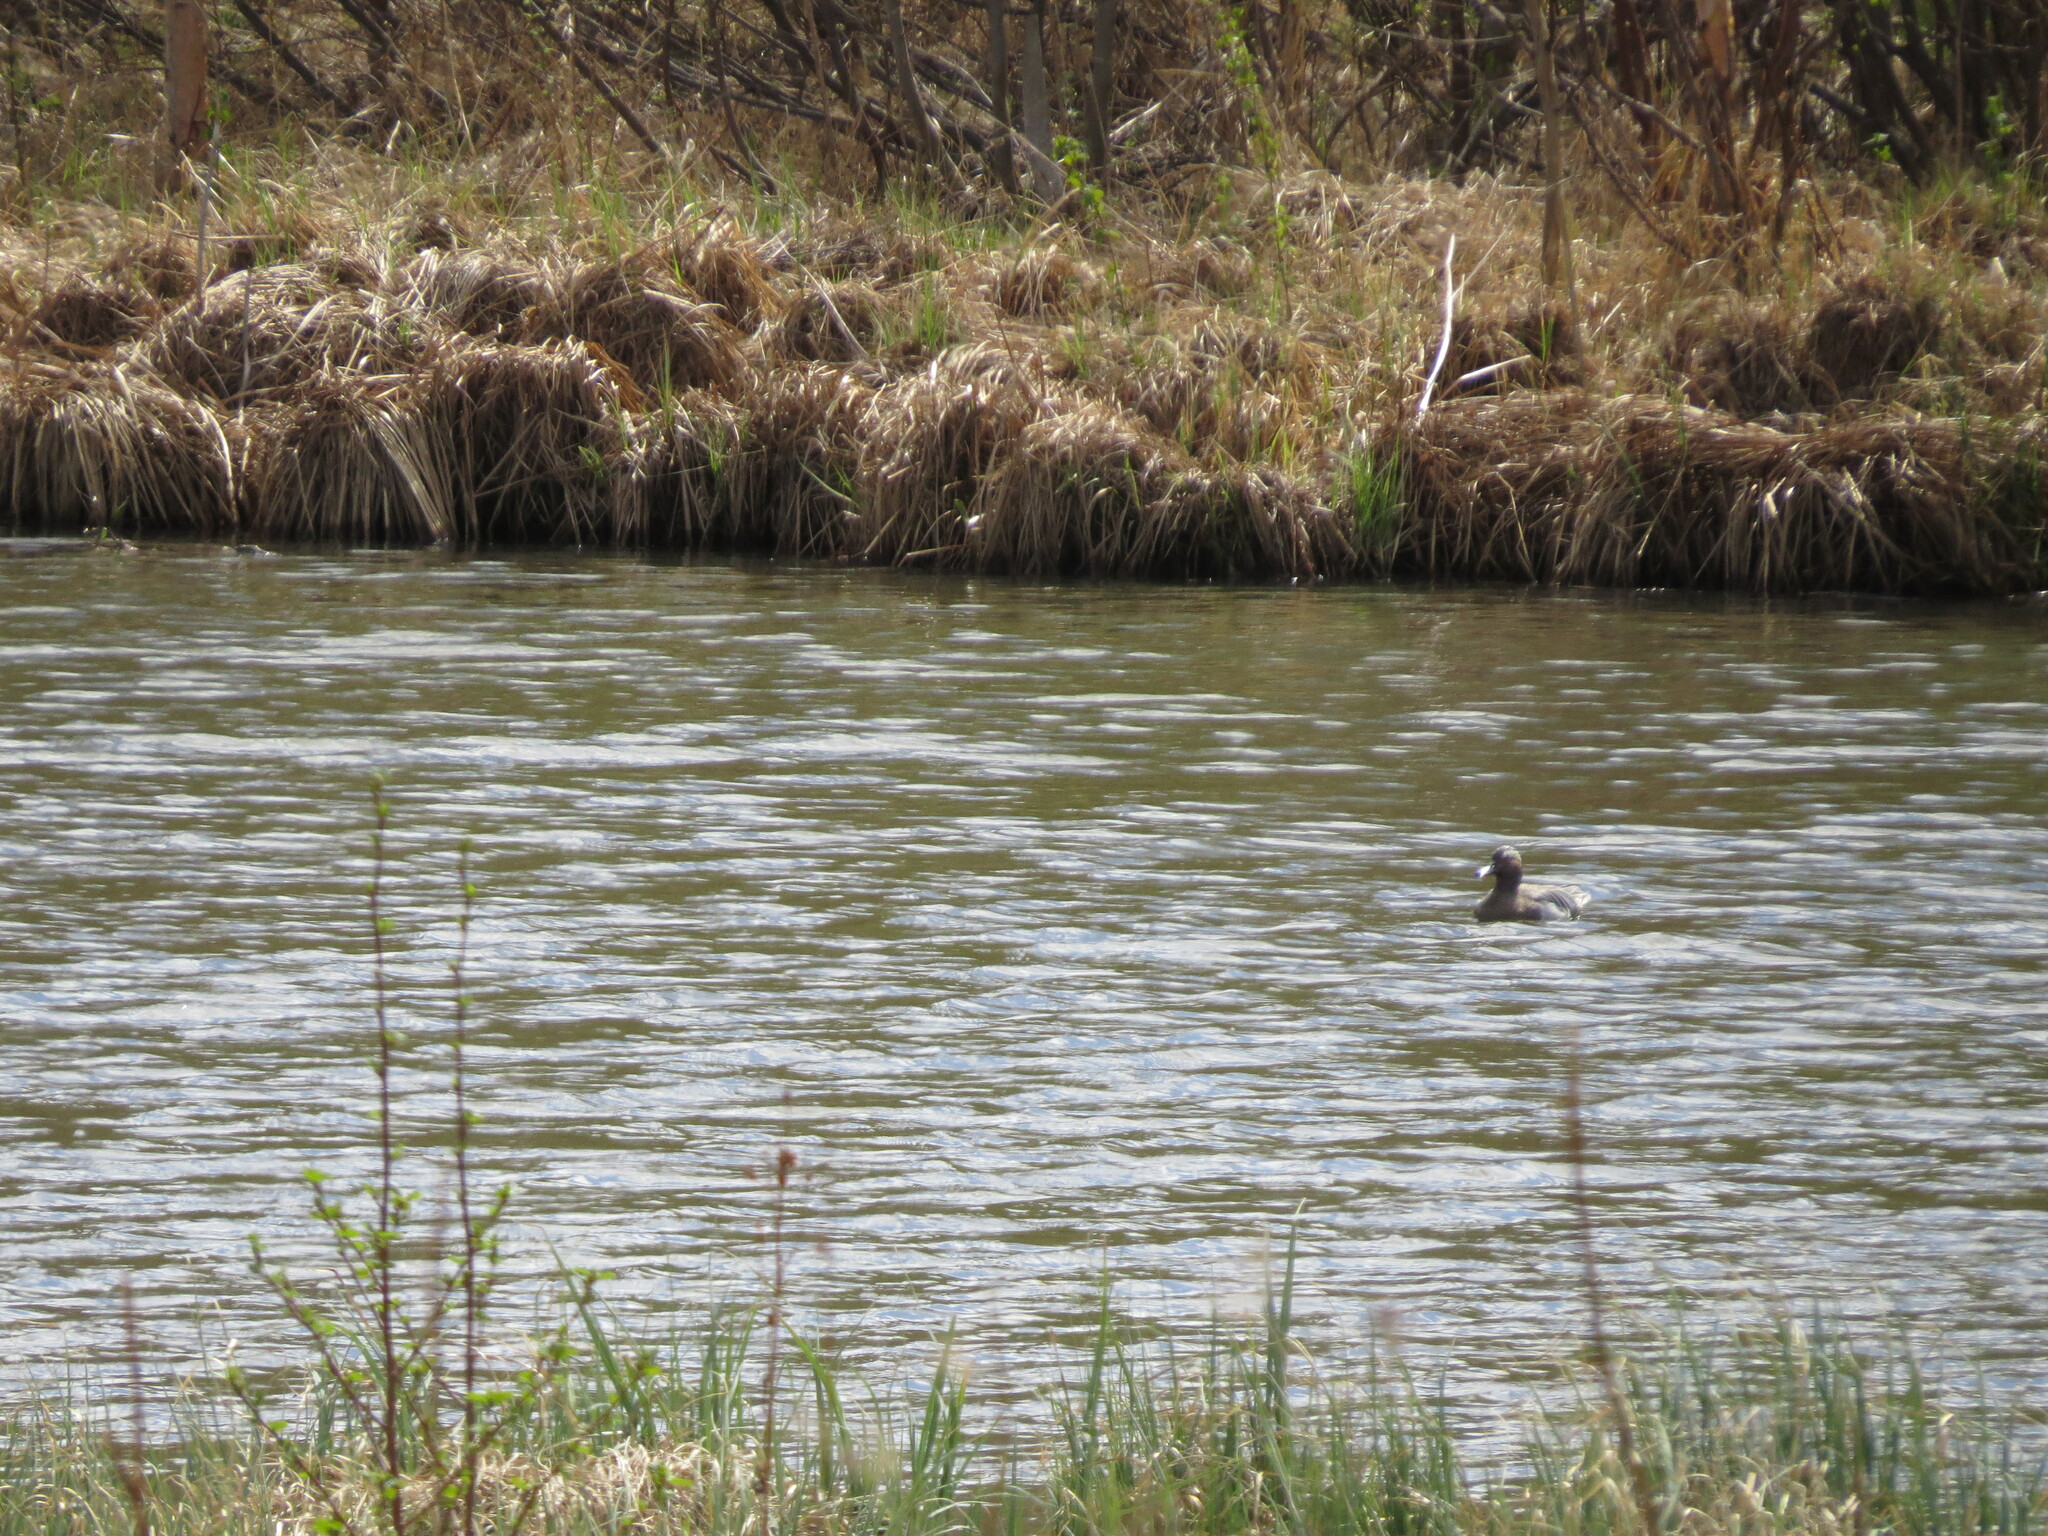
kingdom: Animalia
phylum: Chordata
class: Aves
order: Anseriformes
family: Anatidae
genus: Spatula
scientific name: Spatula querquedula
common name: Garganey
